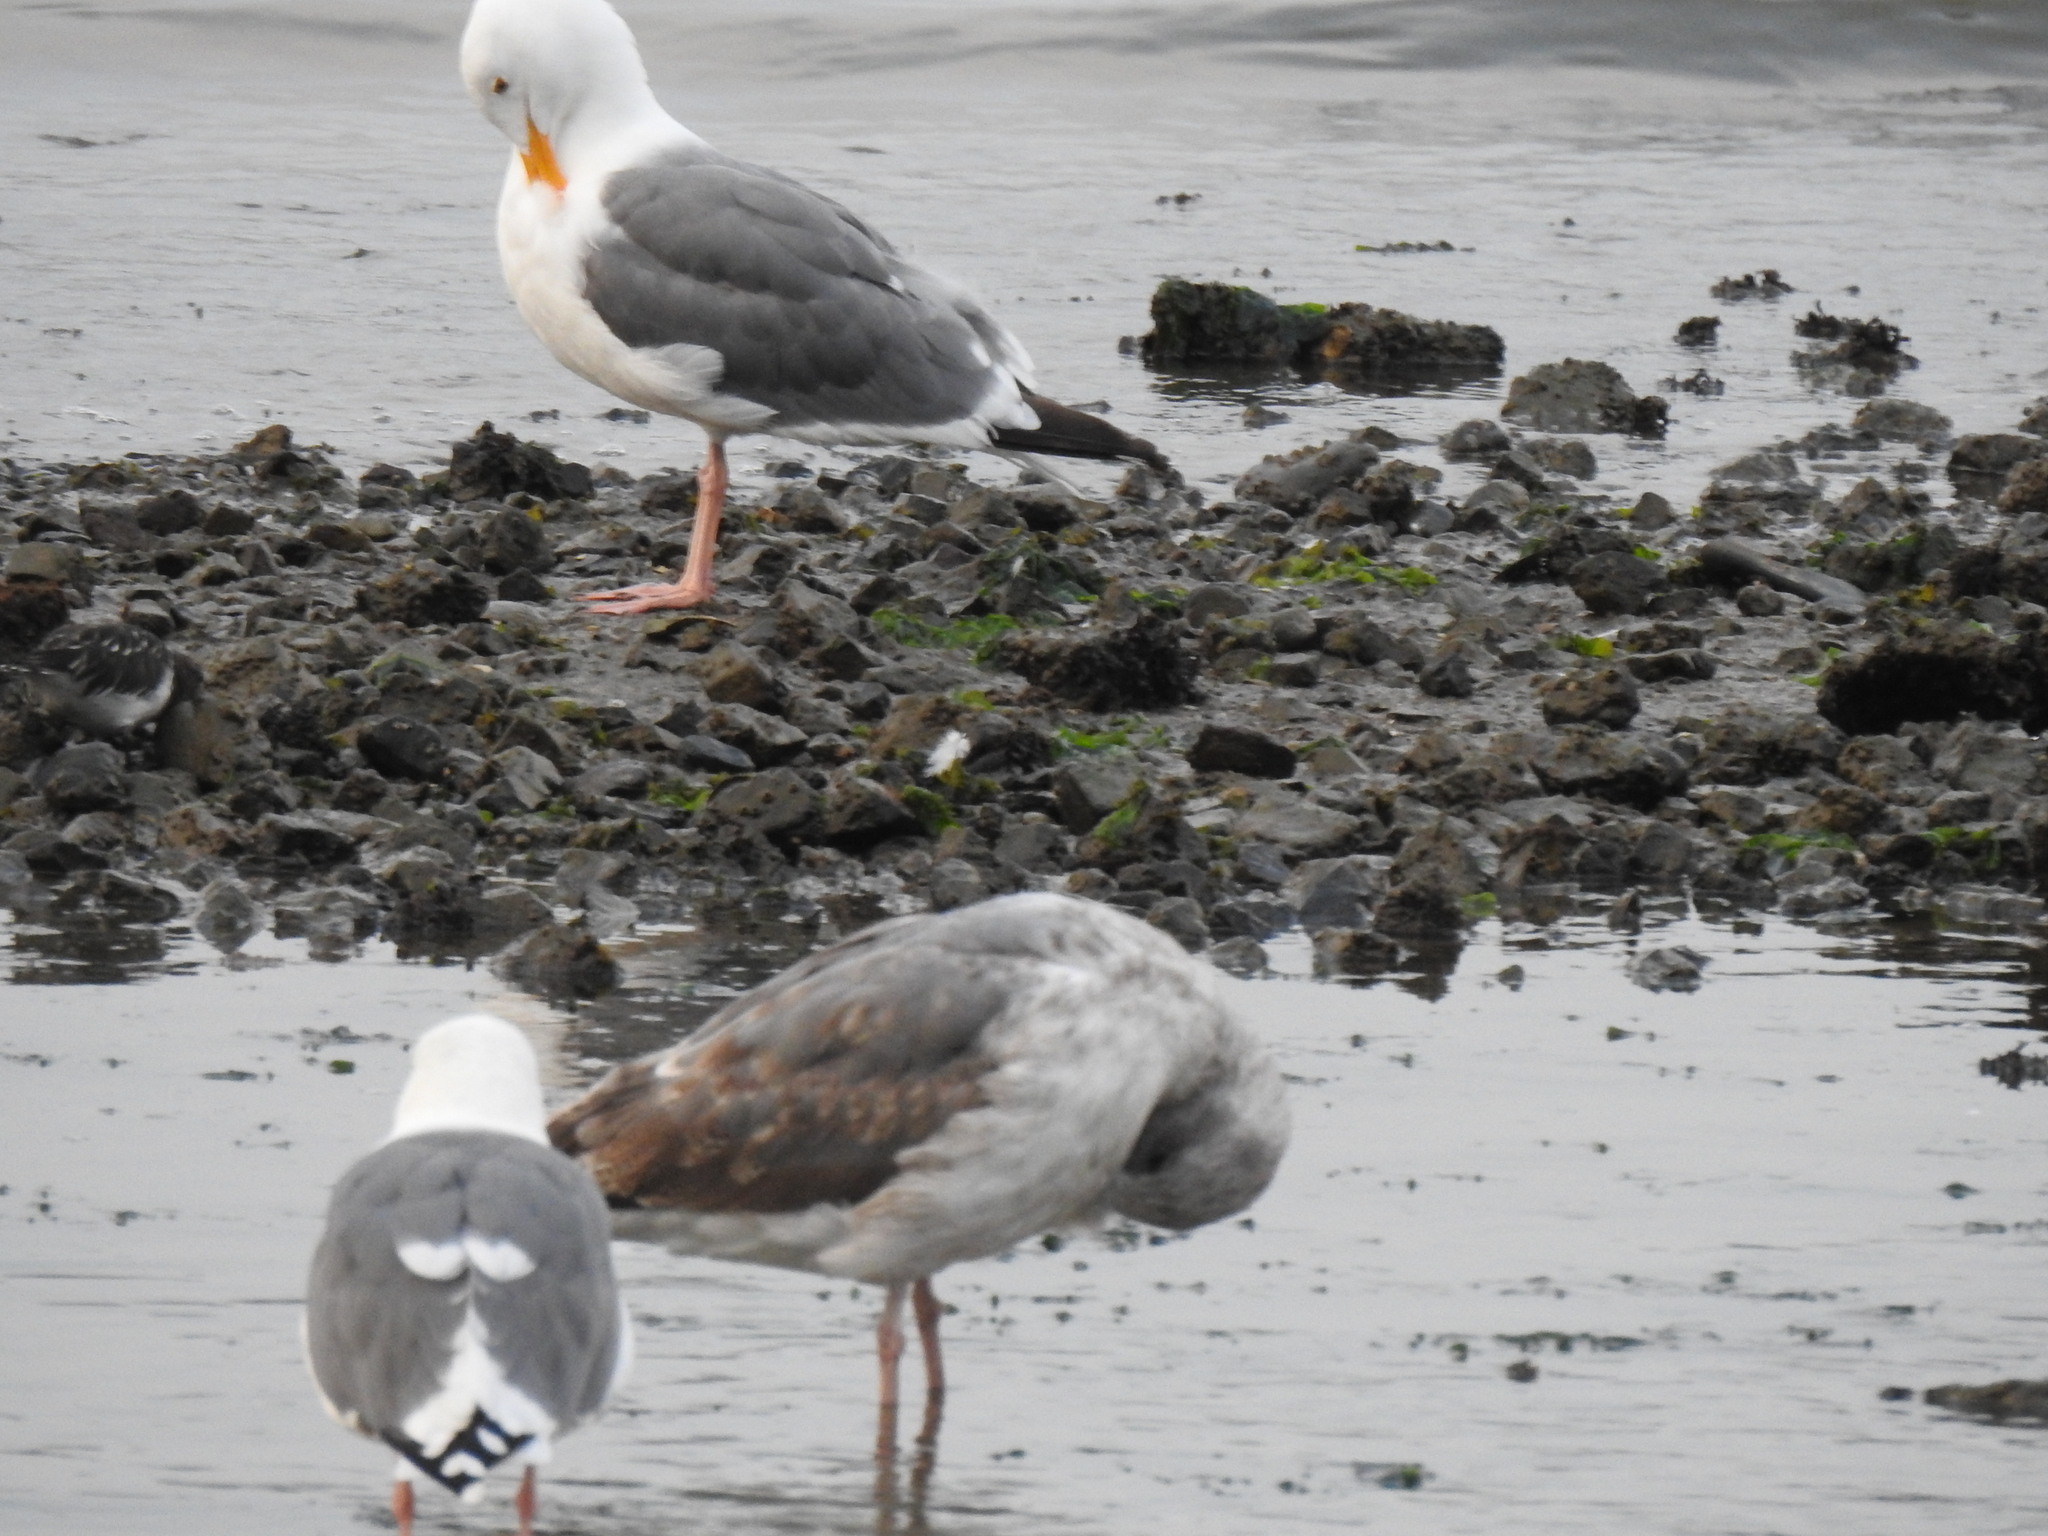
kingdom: Animalia
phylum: Chordata
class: Aves
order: Charadriiformes
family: Laridae
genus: Larus
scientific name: Larus occidentalis
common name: Western gull
